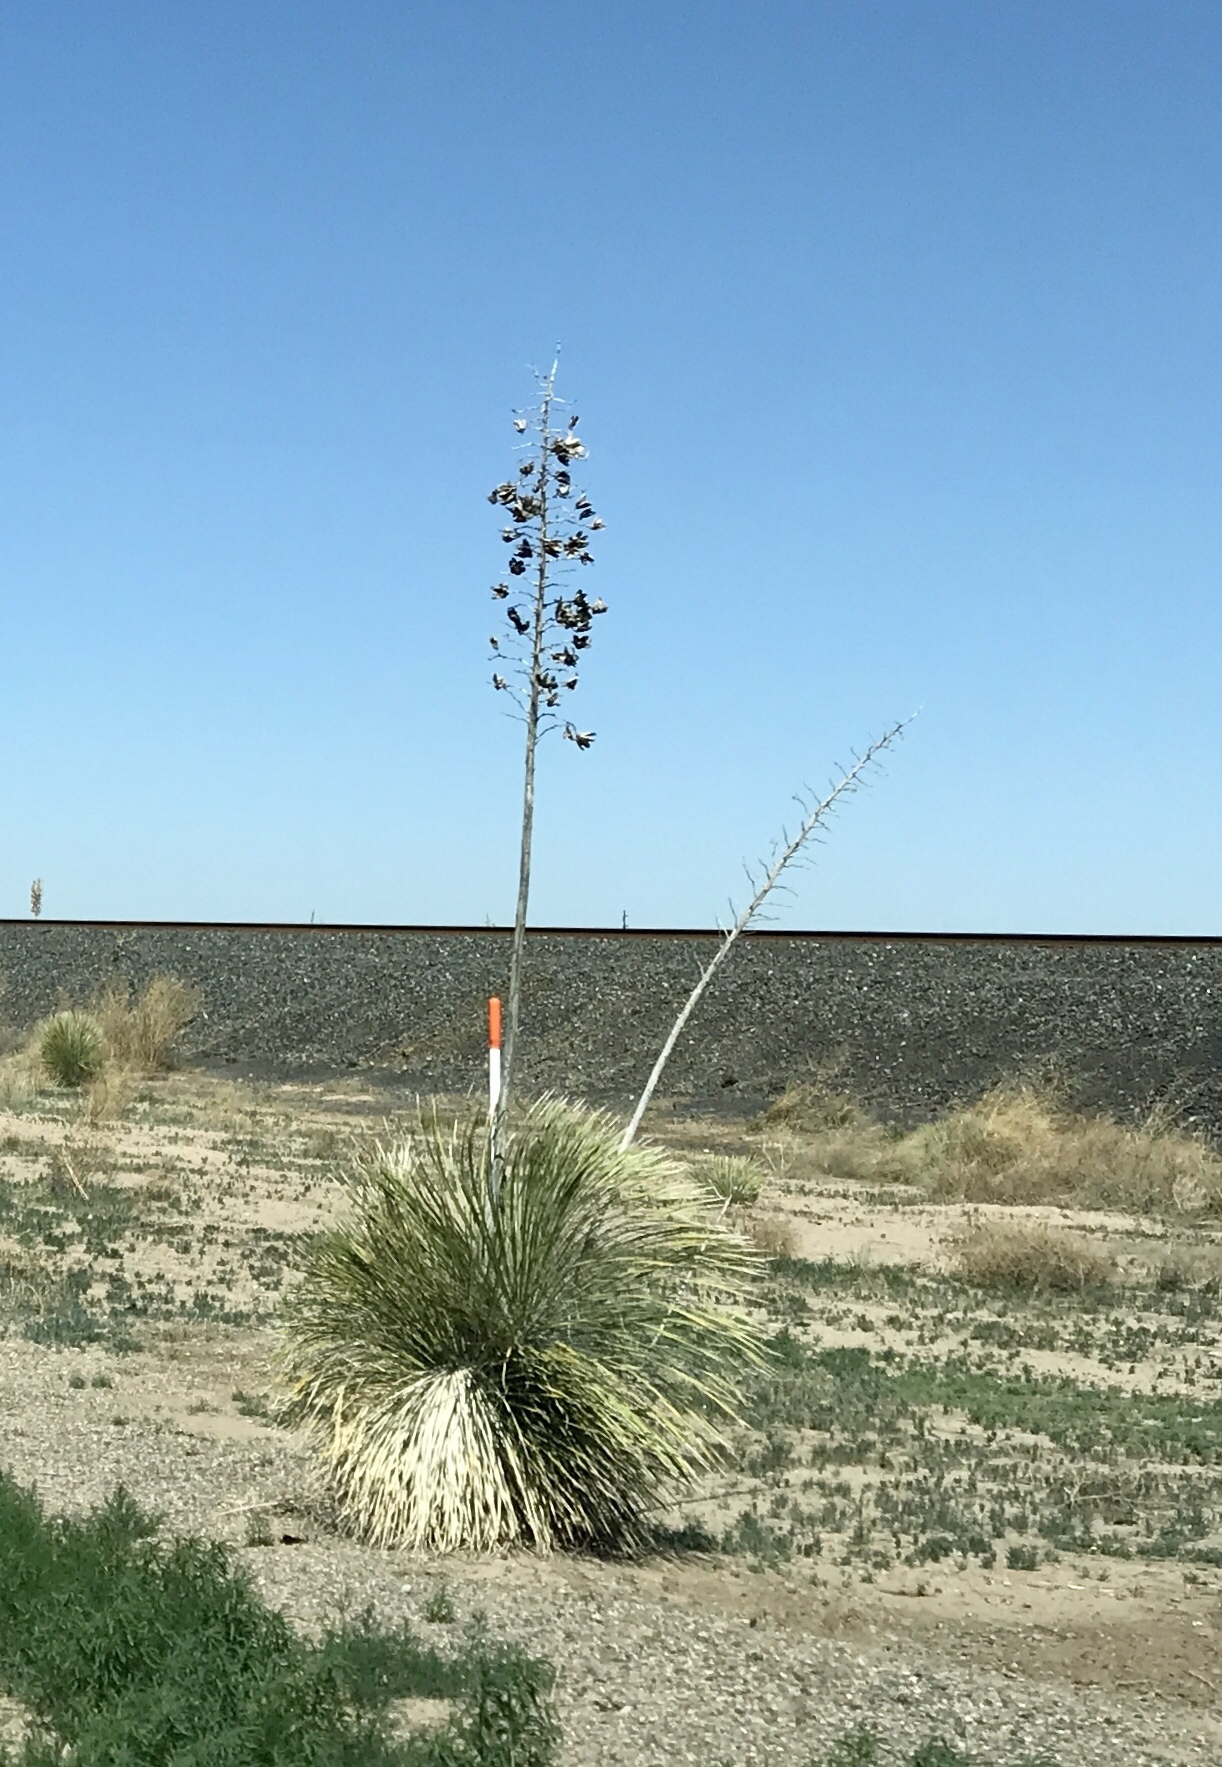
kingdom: Plantae
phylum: Tracheophyta
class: Liliopsida
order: Asparagales
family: Asparagaceae
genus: Yucca
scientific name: Yucca elata
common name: Palmella
